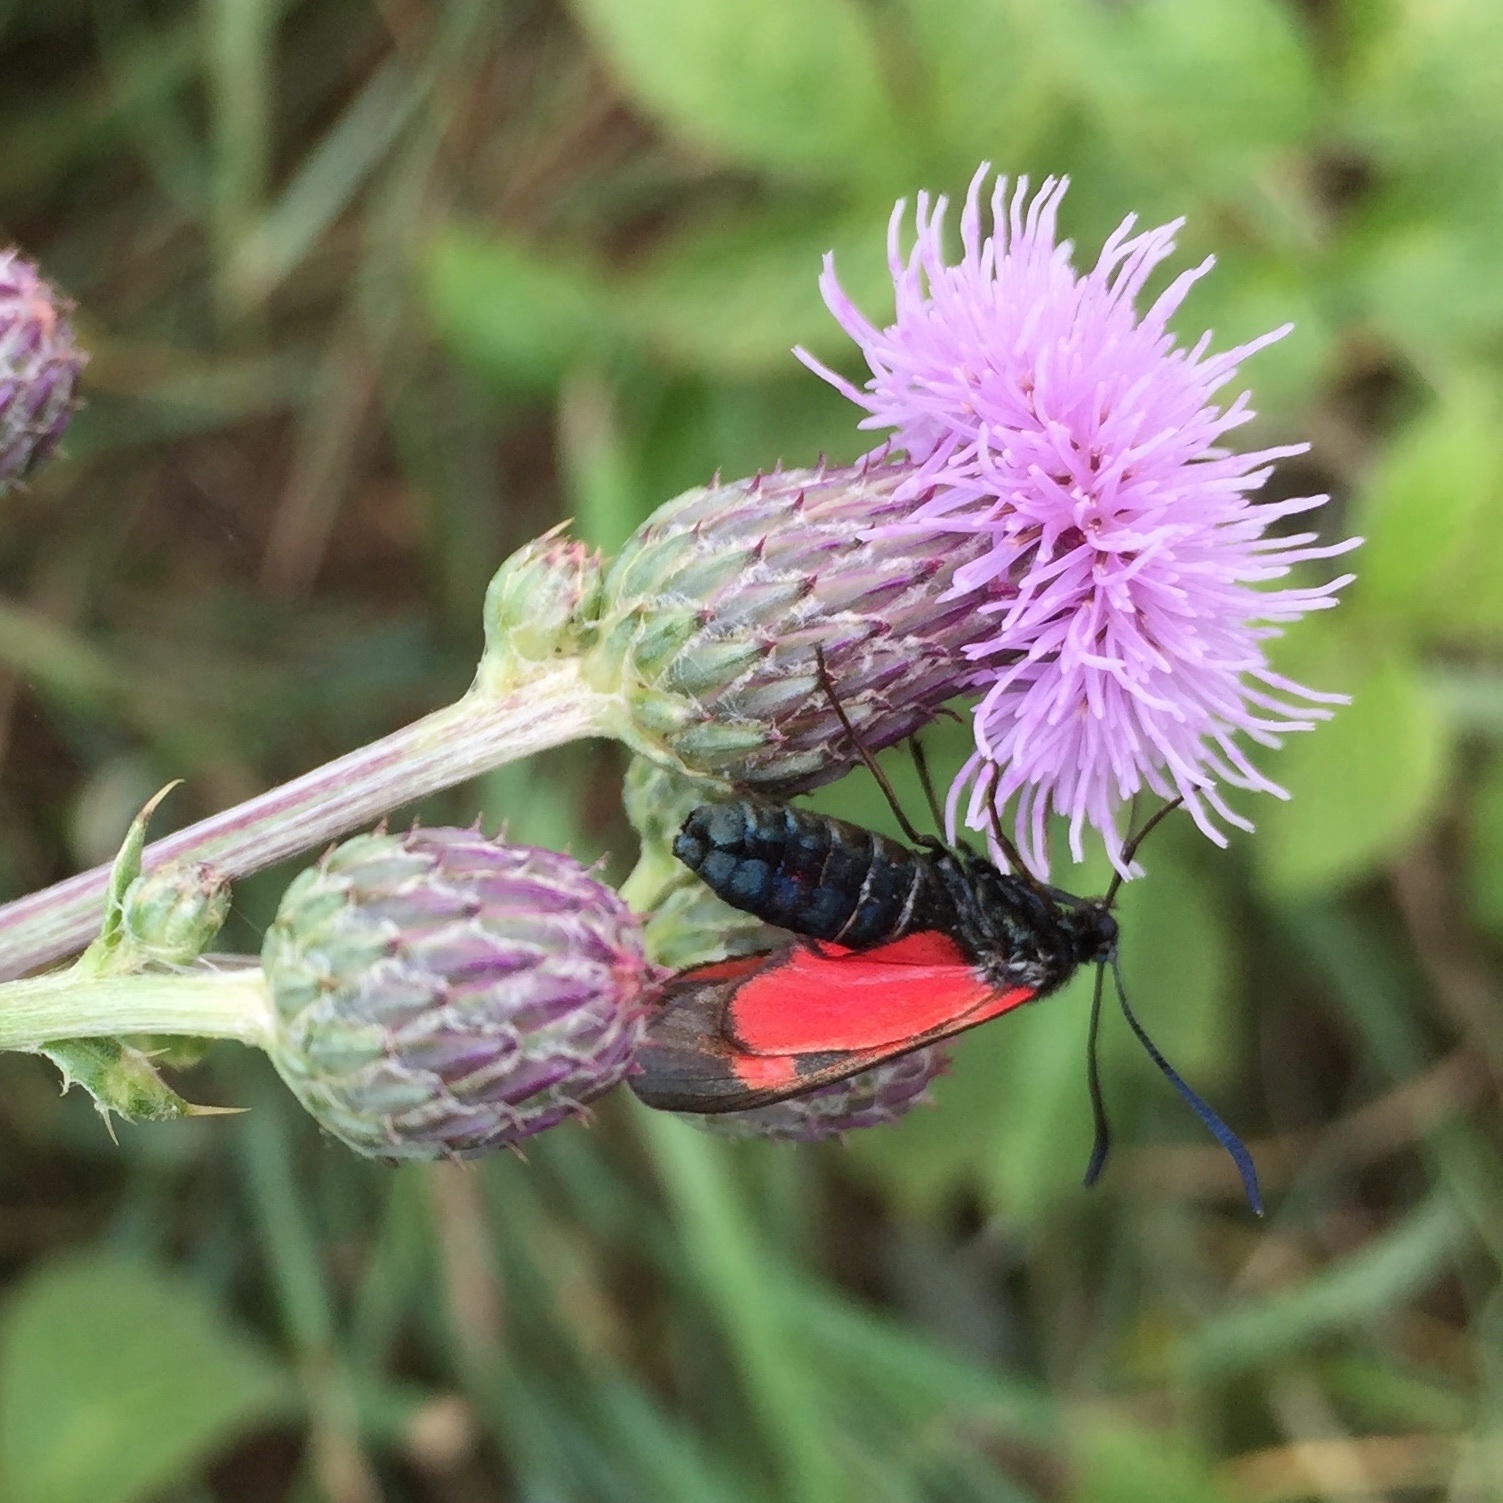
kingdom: Animalia
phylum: Arthropoda
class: Insecta
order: Lepidoptera
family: Zygaenidae
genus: Zygaena
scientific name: Zygaena viciae
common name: New forest burnet
